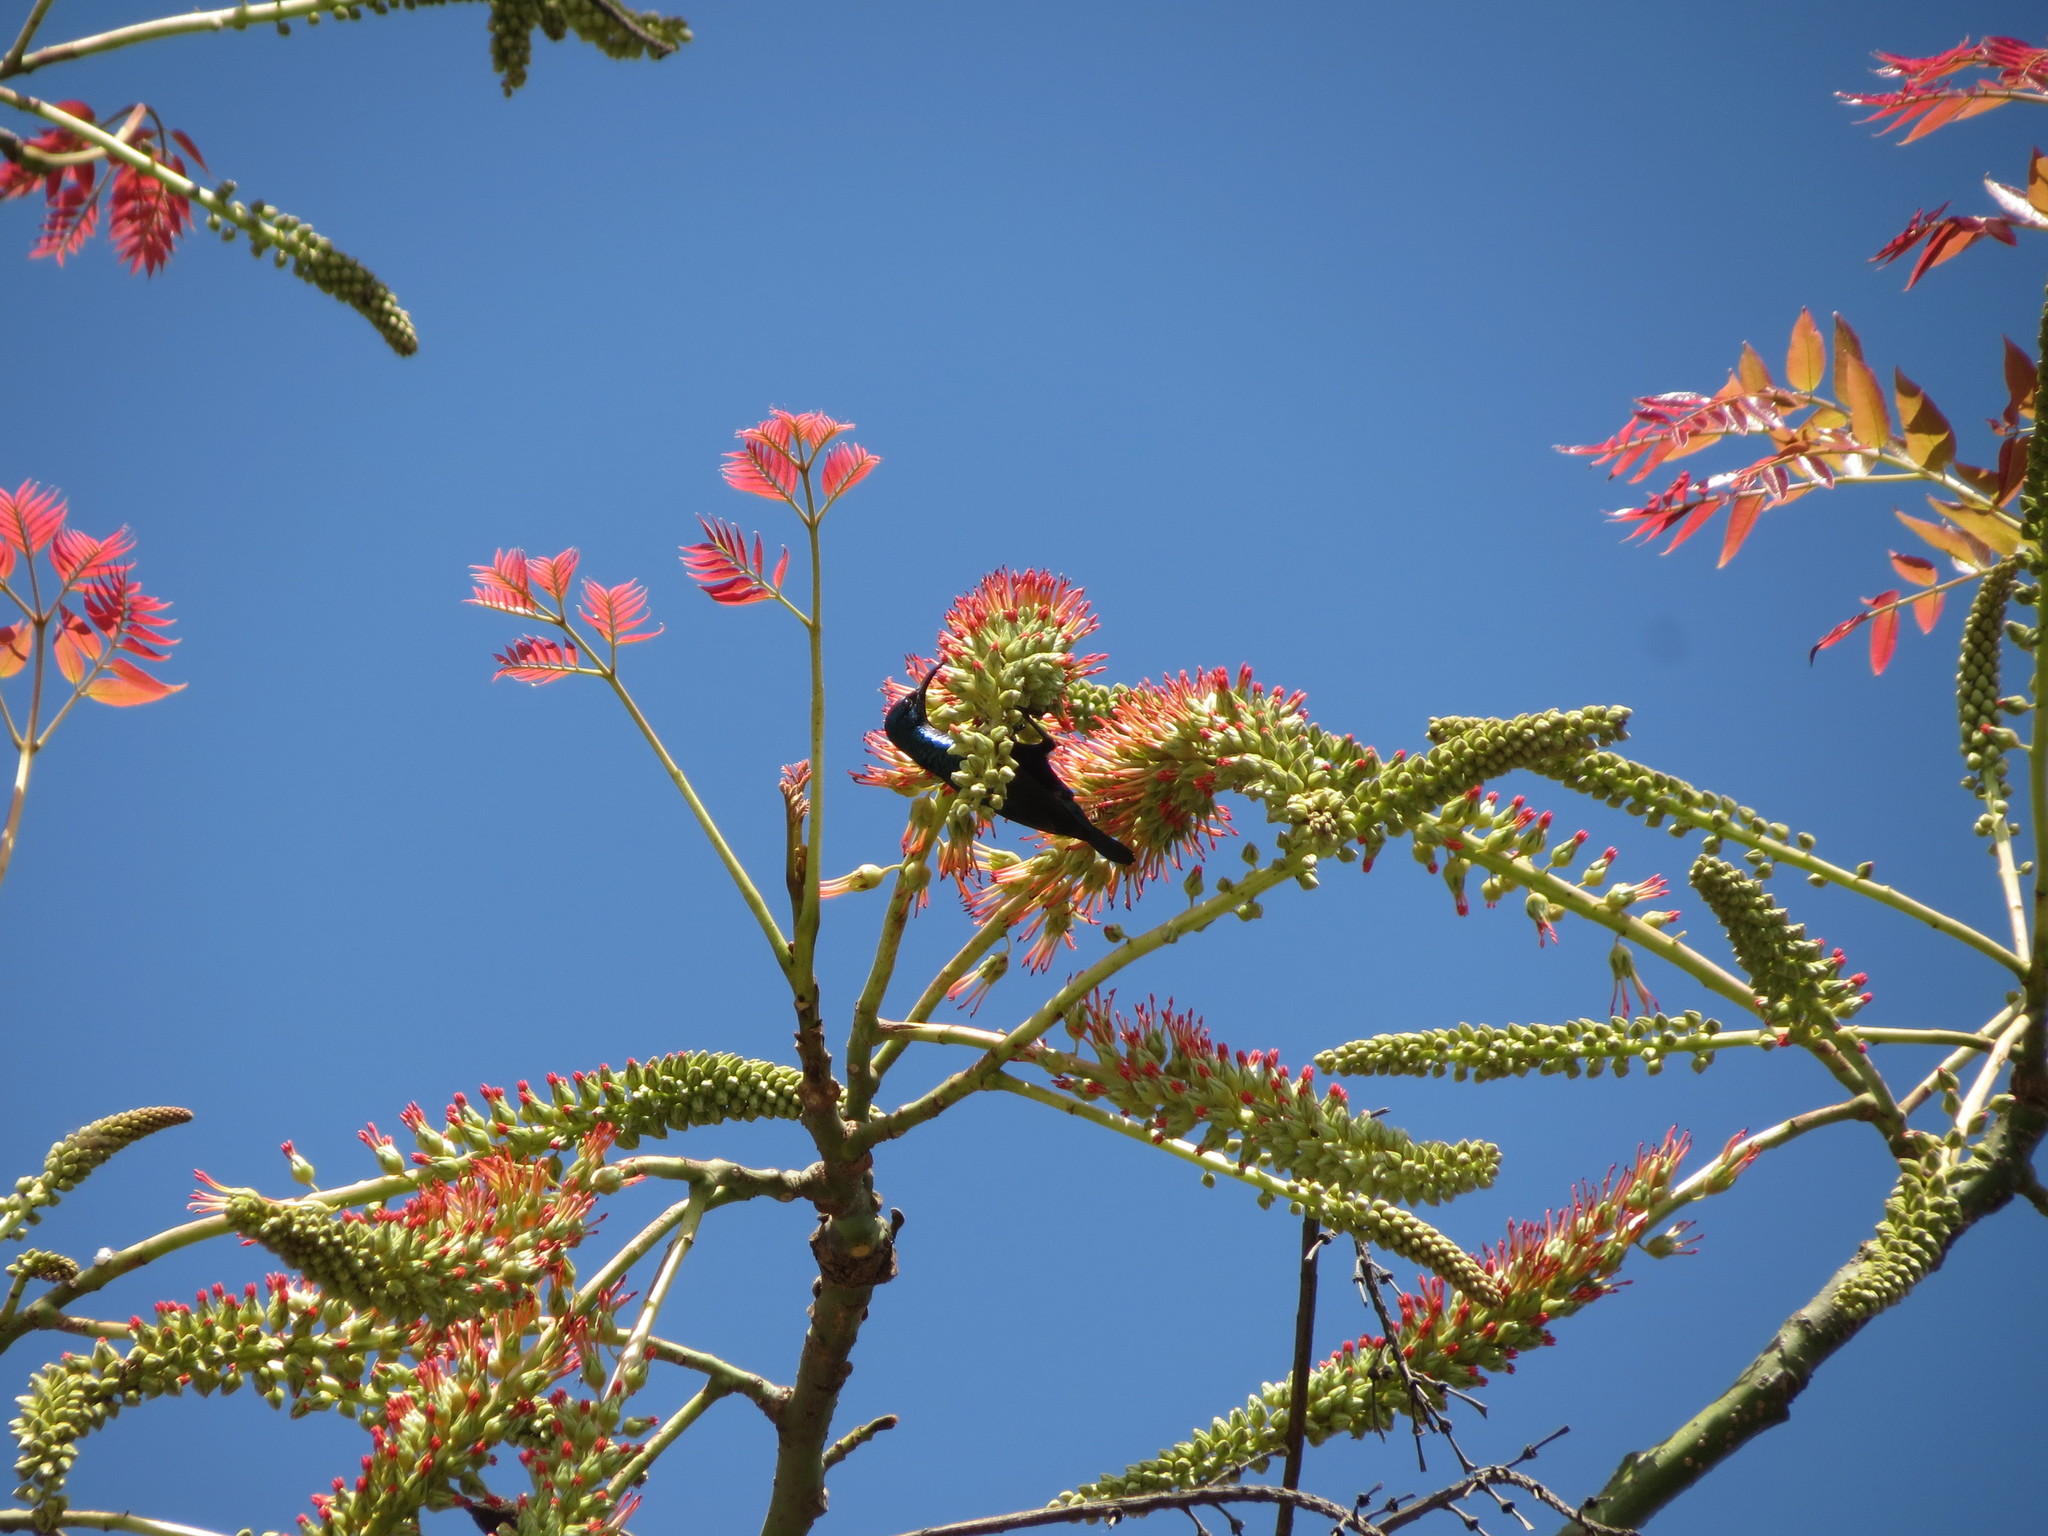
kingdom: Plantae
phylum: Tracheophyta
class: Magnoliopsida
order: Fabales
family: Fabaceae
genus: Acrocarpus
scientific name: Acrocarpus fraxinifolius
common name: Kenya coffeeshade
